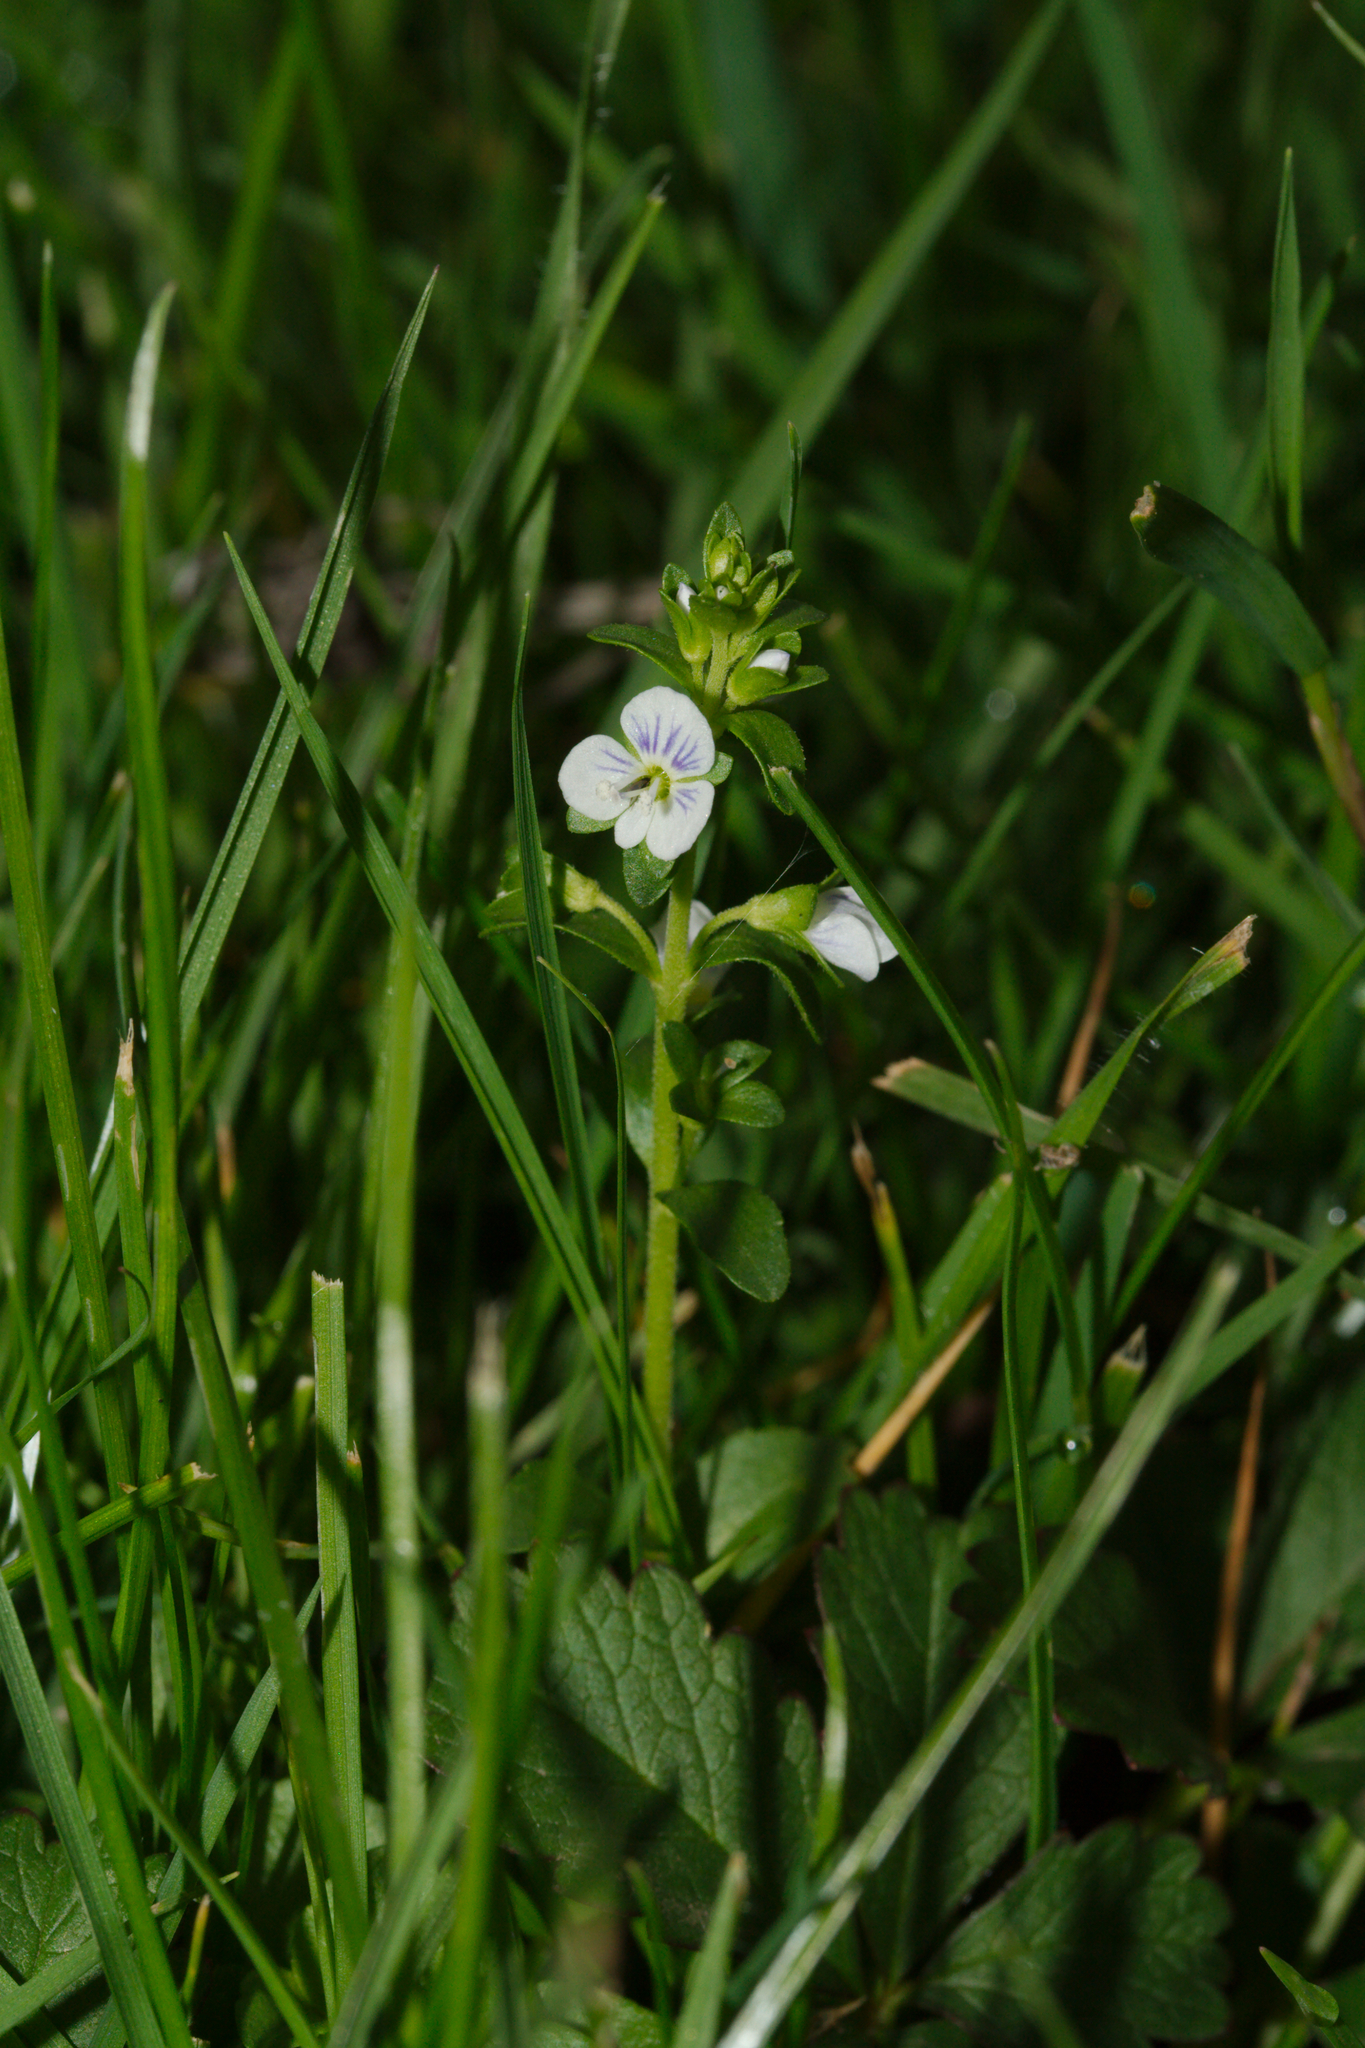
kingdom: Plantae
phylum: Tracheophyta
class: Magnoliopsida
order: Lamiales
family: Plantaginaceae
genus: Veronica
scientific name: Veronica serpyllifolia
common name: Thyme-leaved speedwell
